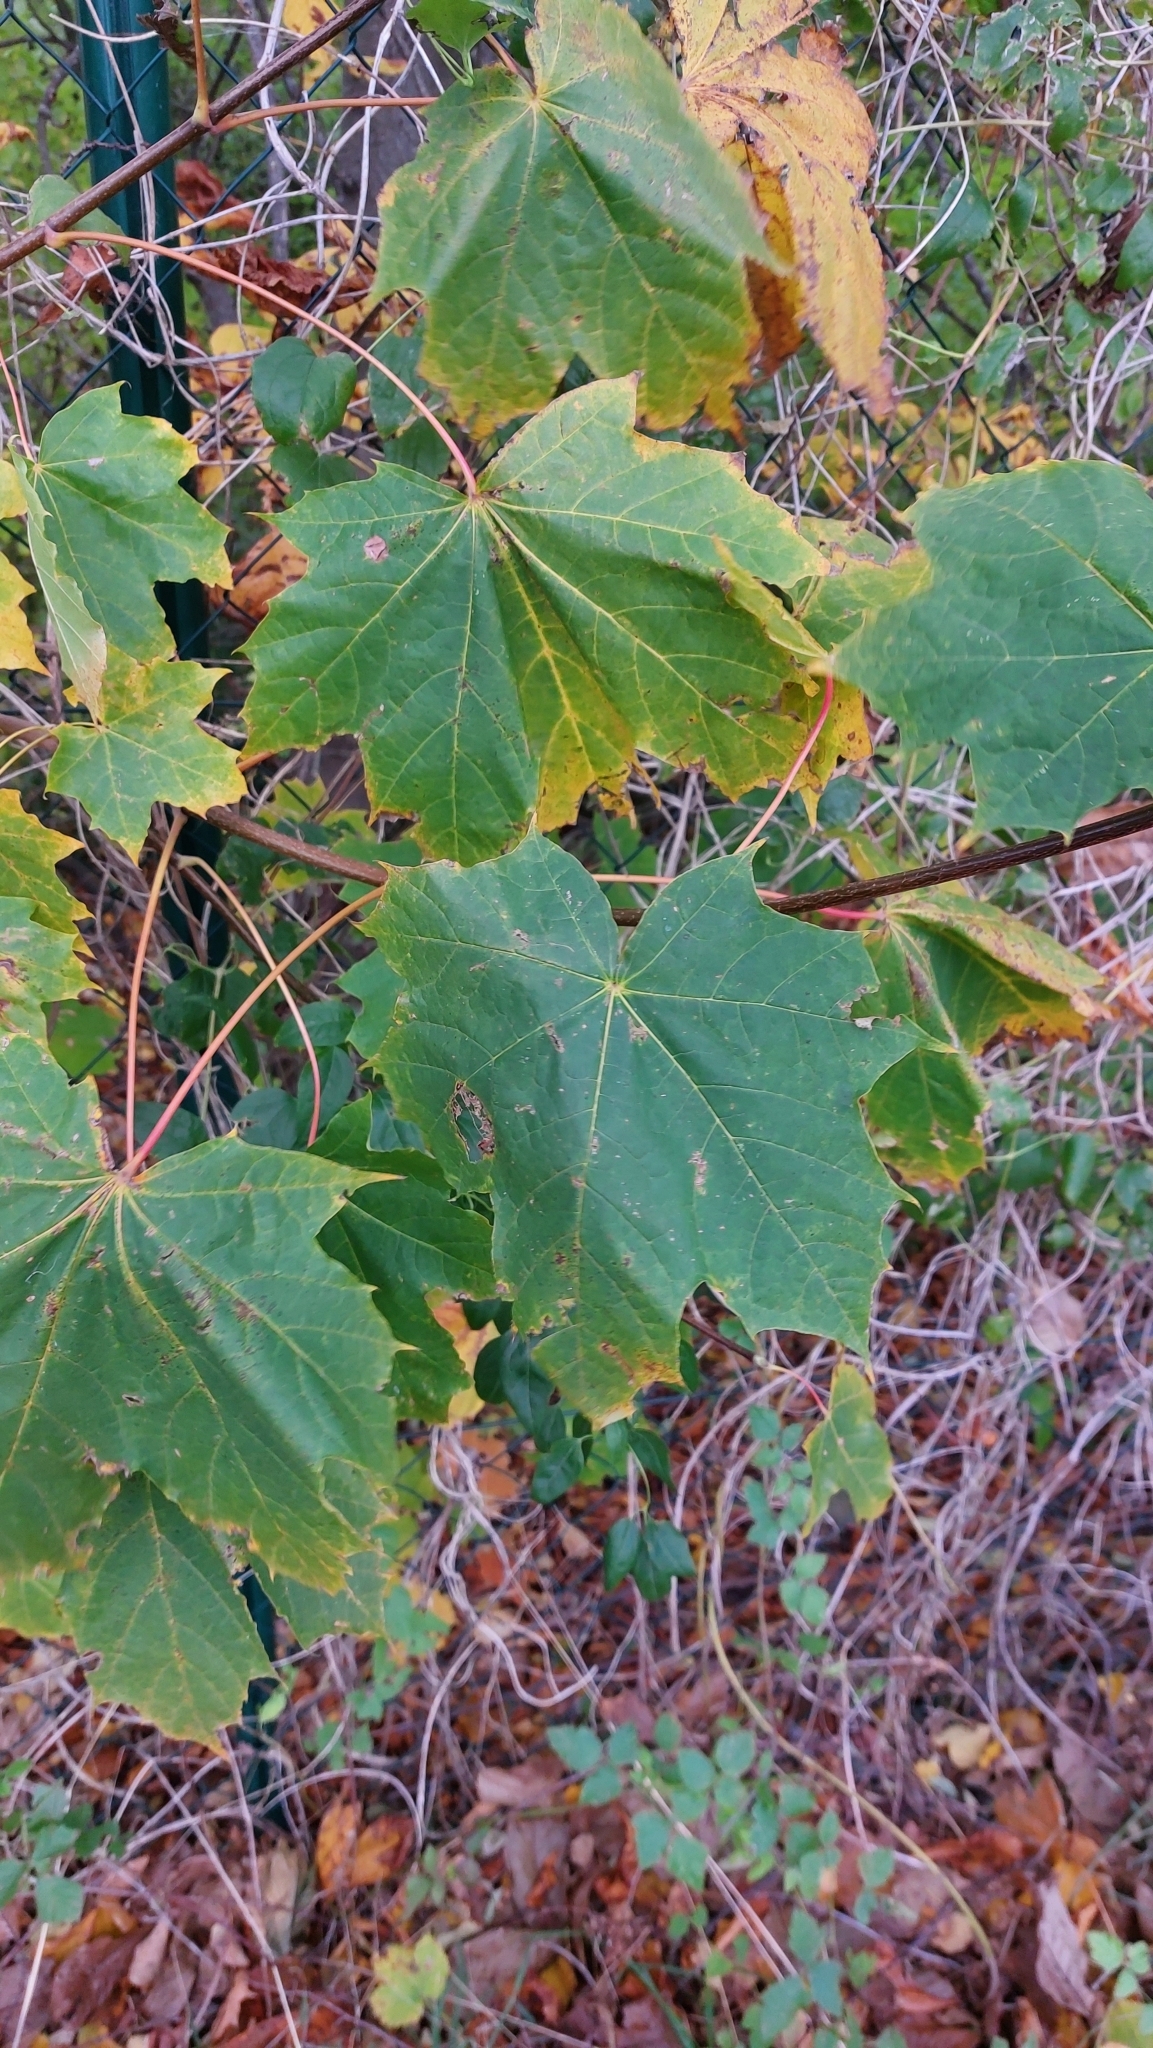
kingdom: Plantae
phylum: Tracheophyta
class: Magnoliopsida
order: Sapindales
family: Sapindaceae
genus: Acer
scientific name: Acer platanoides
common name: Norway maple
